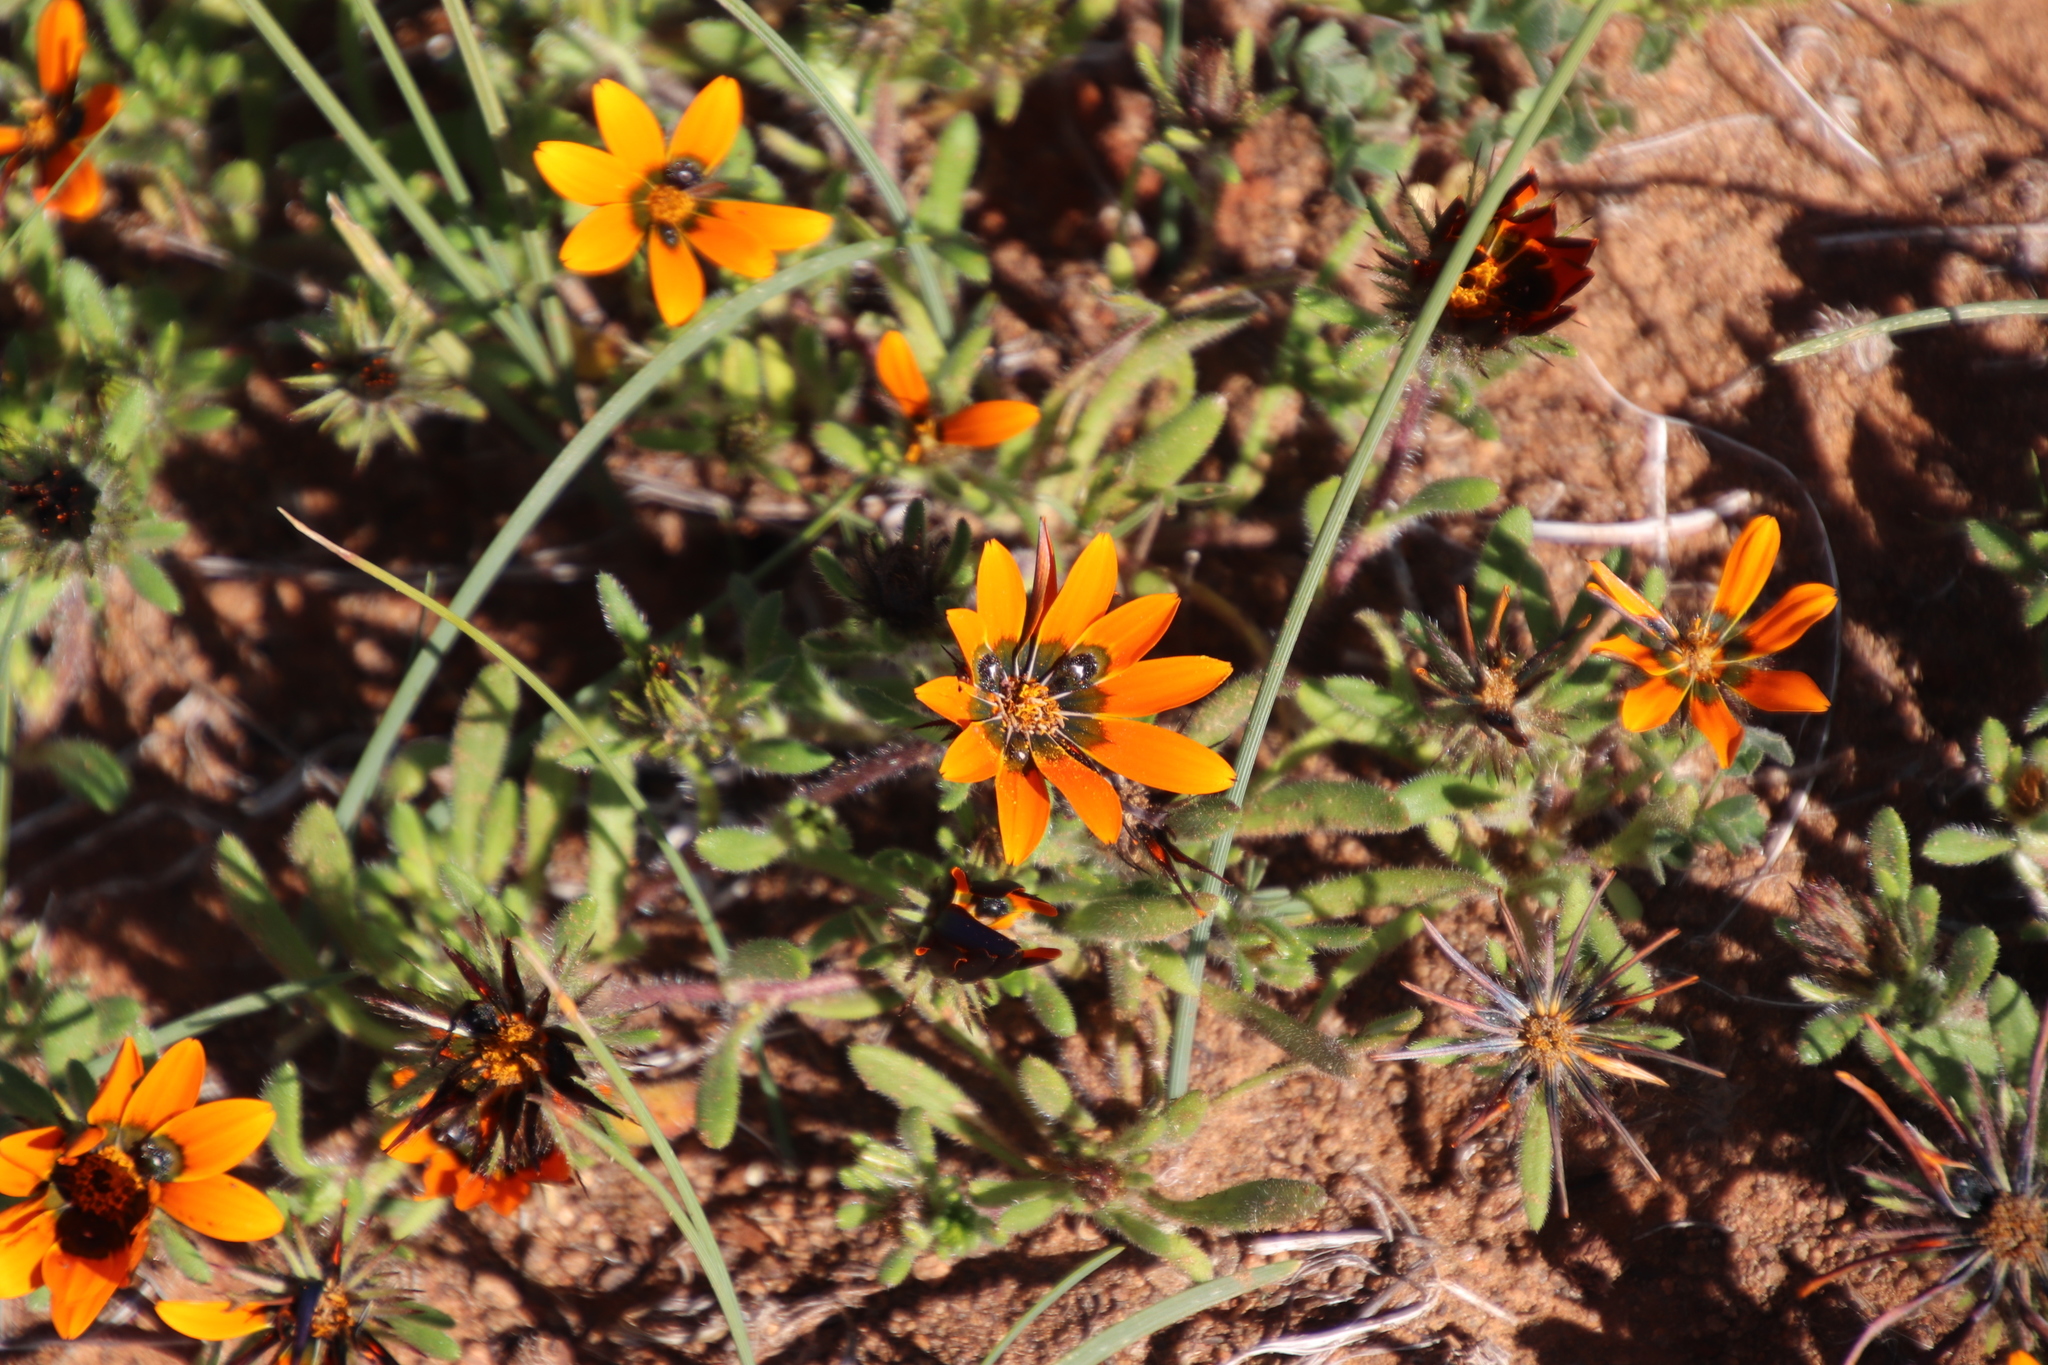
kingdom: Plantae
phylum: Tracheophyta
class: Magnoliopsida
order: Asterales
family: Asteraceae
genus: Gorteria
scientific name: Gorteria diffusa
